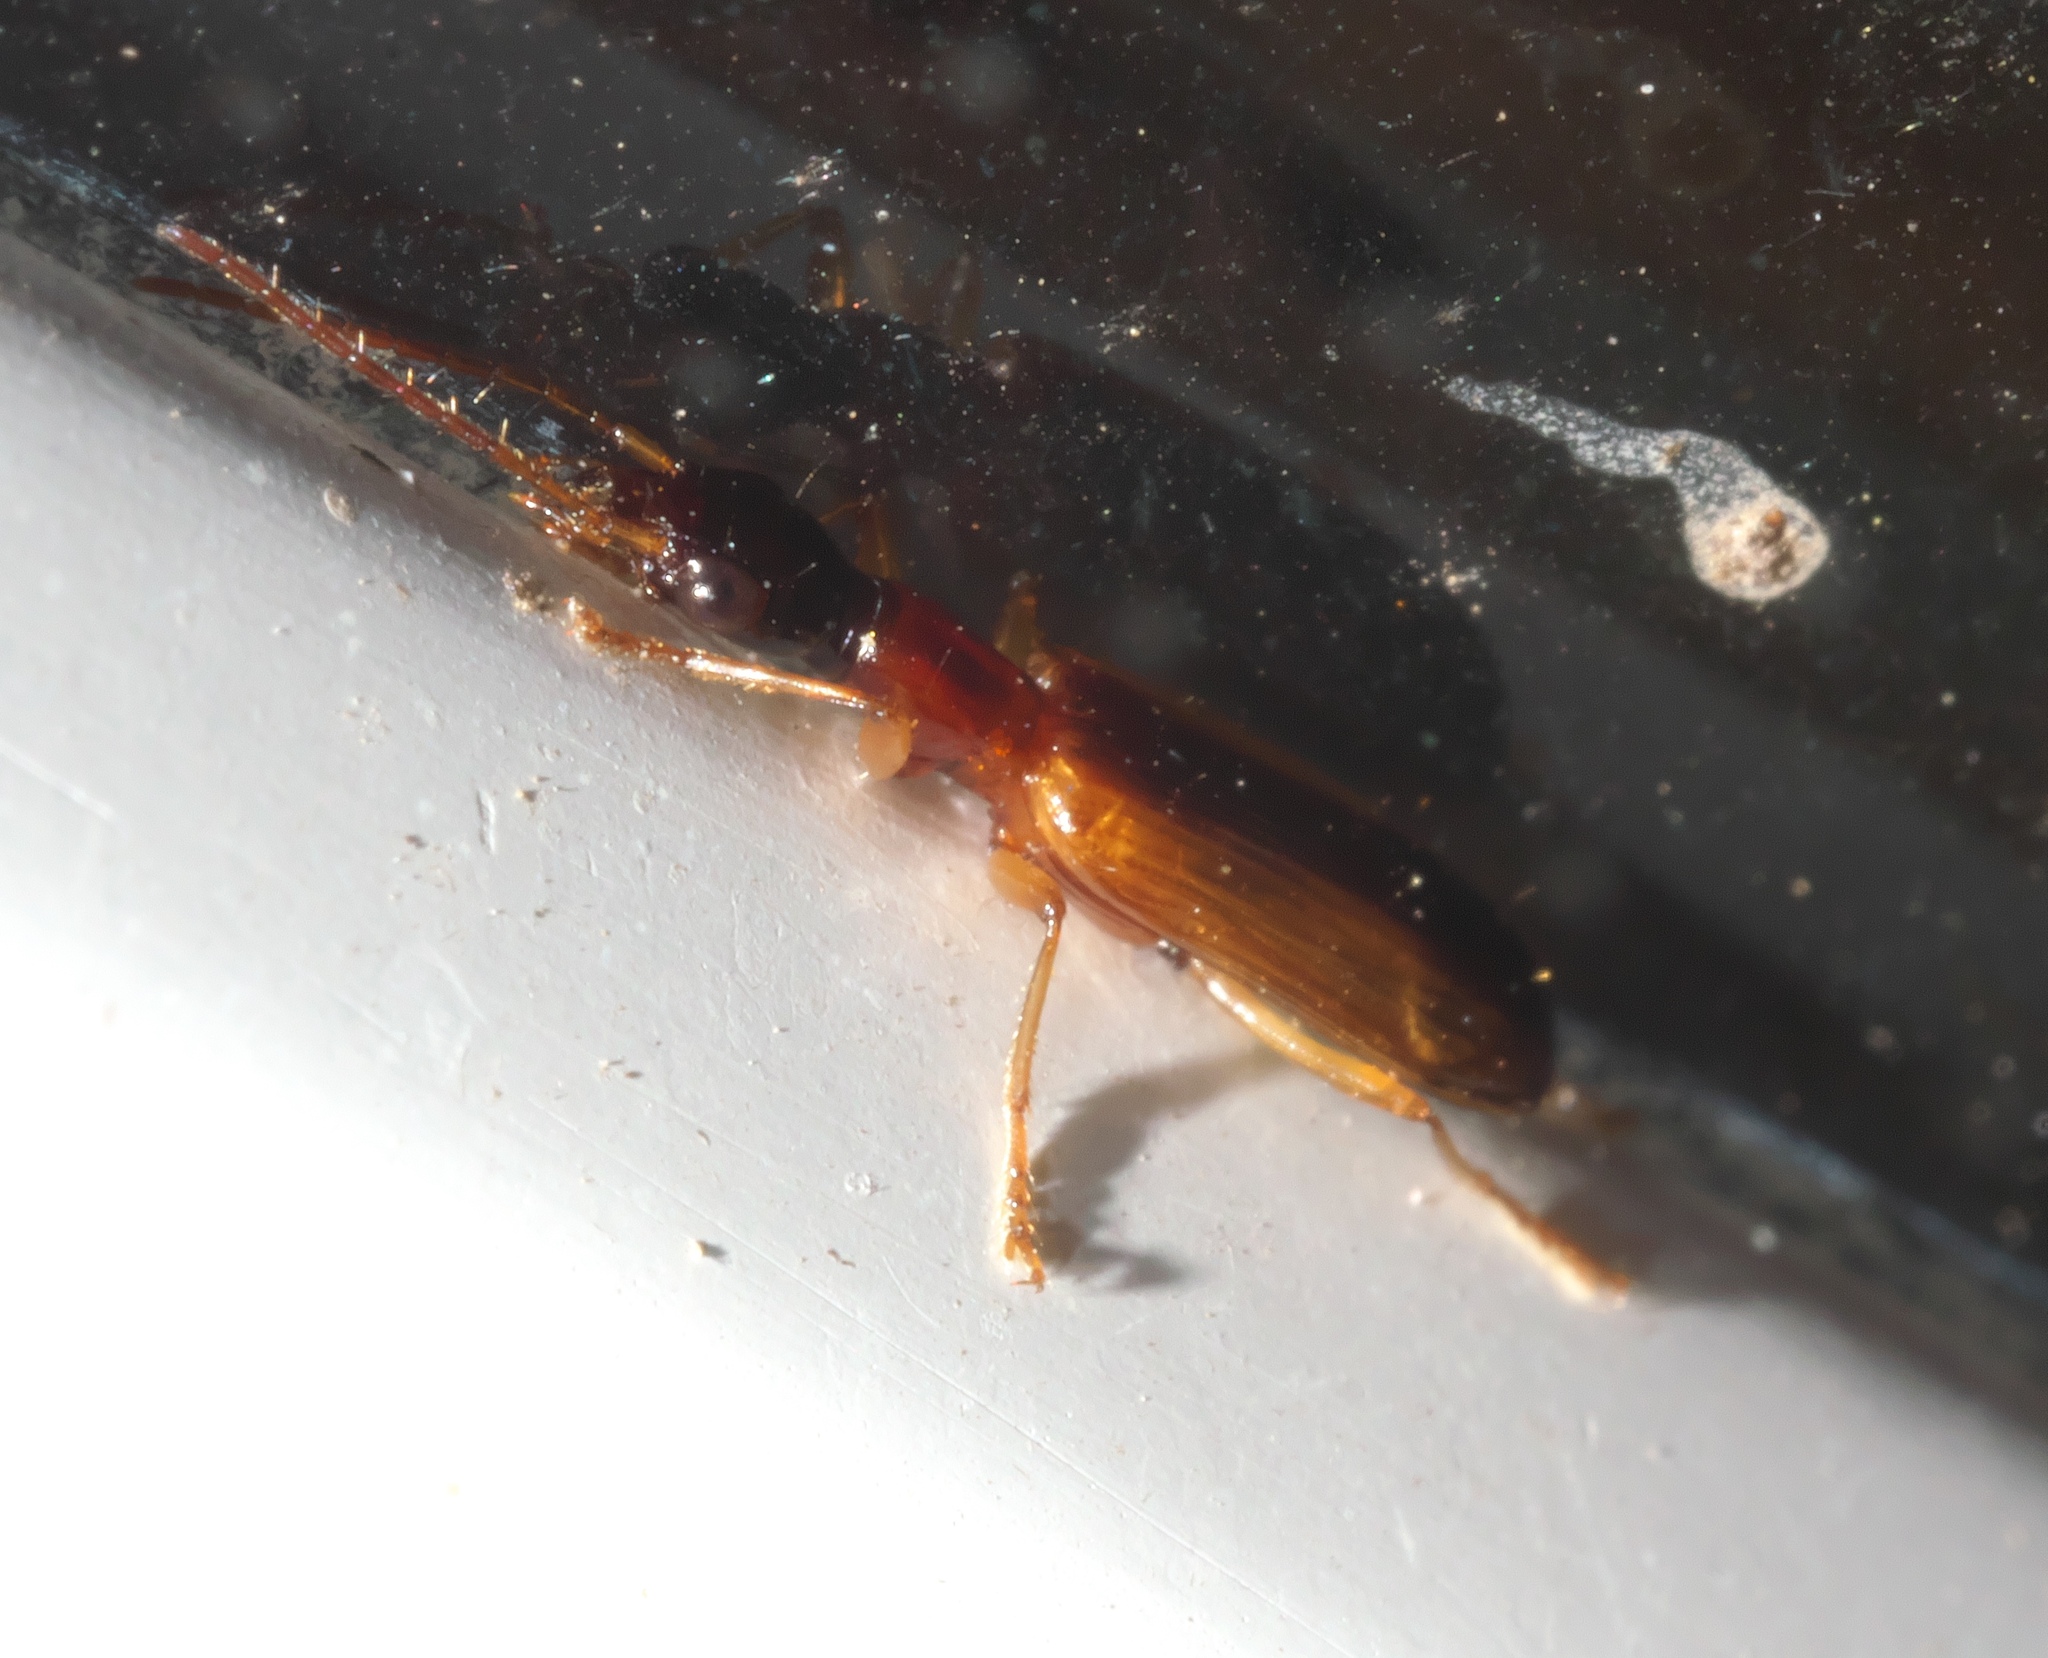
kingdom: Animalia
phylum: Arthropoda
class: Insecta
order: Coleoptera
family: Carabidae
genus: Leptotrachelus
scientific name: Leptotrachelus dorsalis
